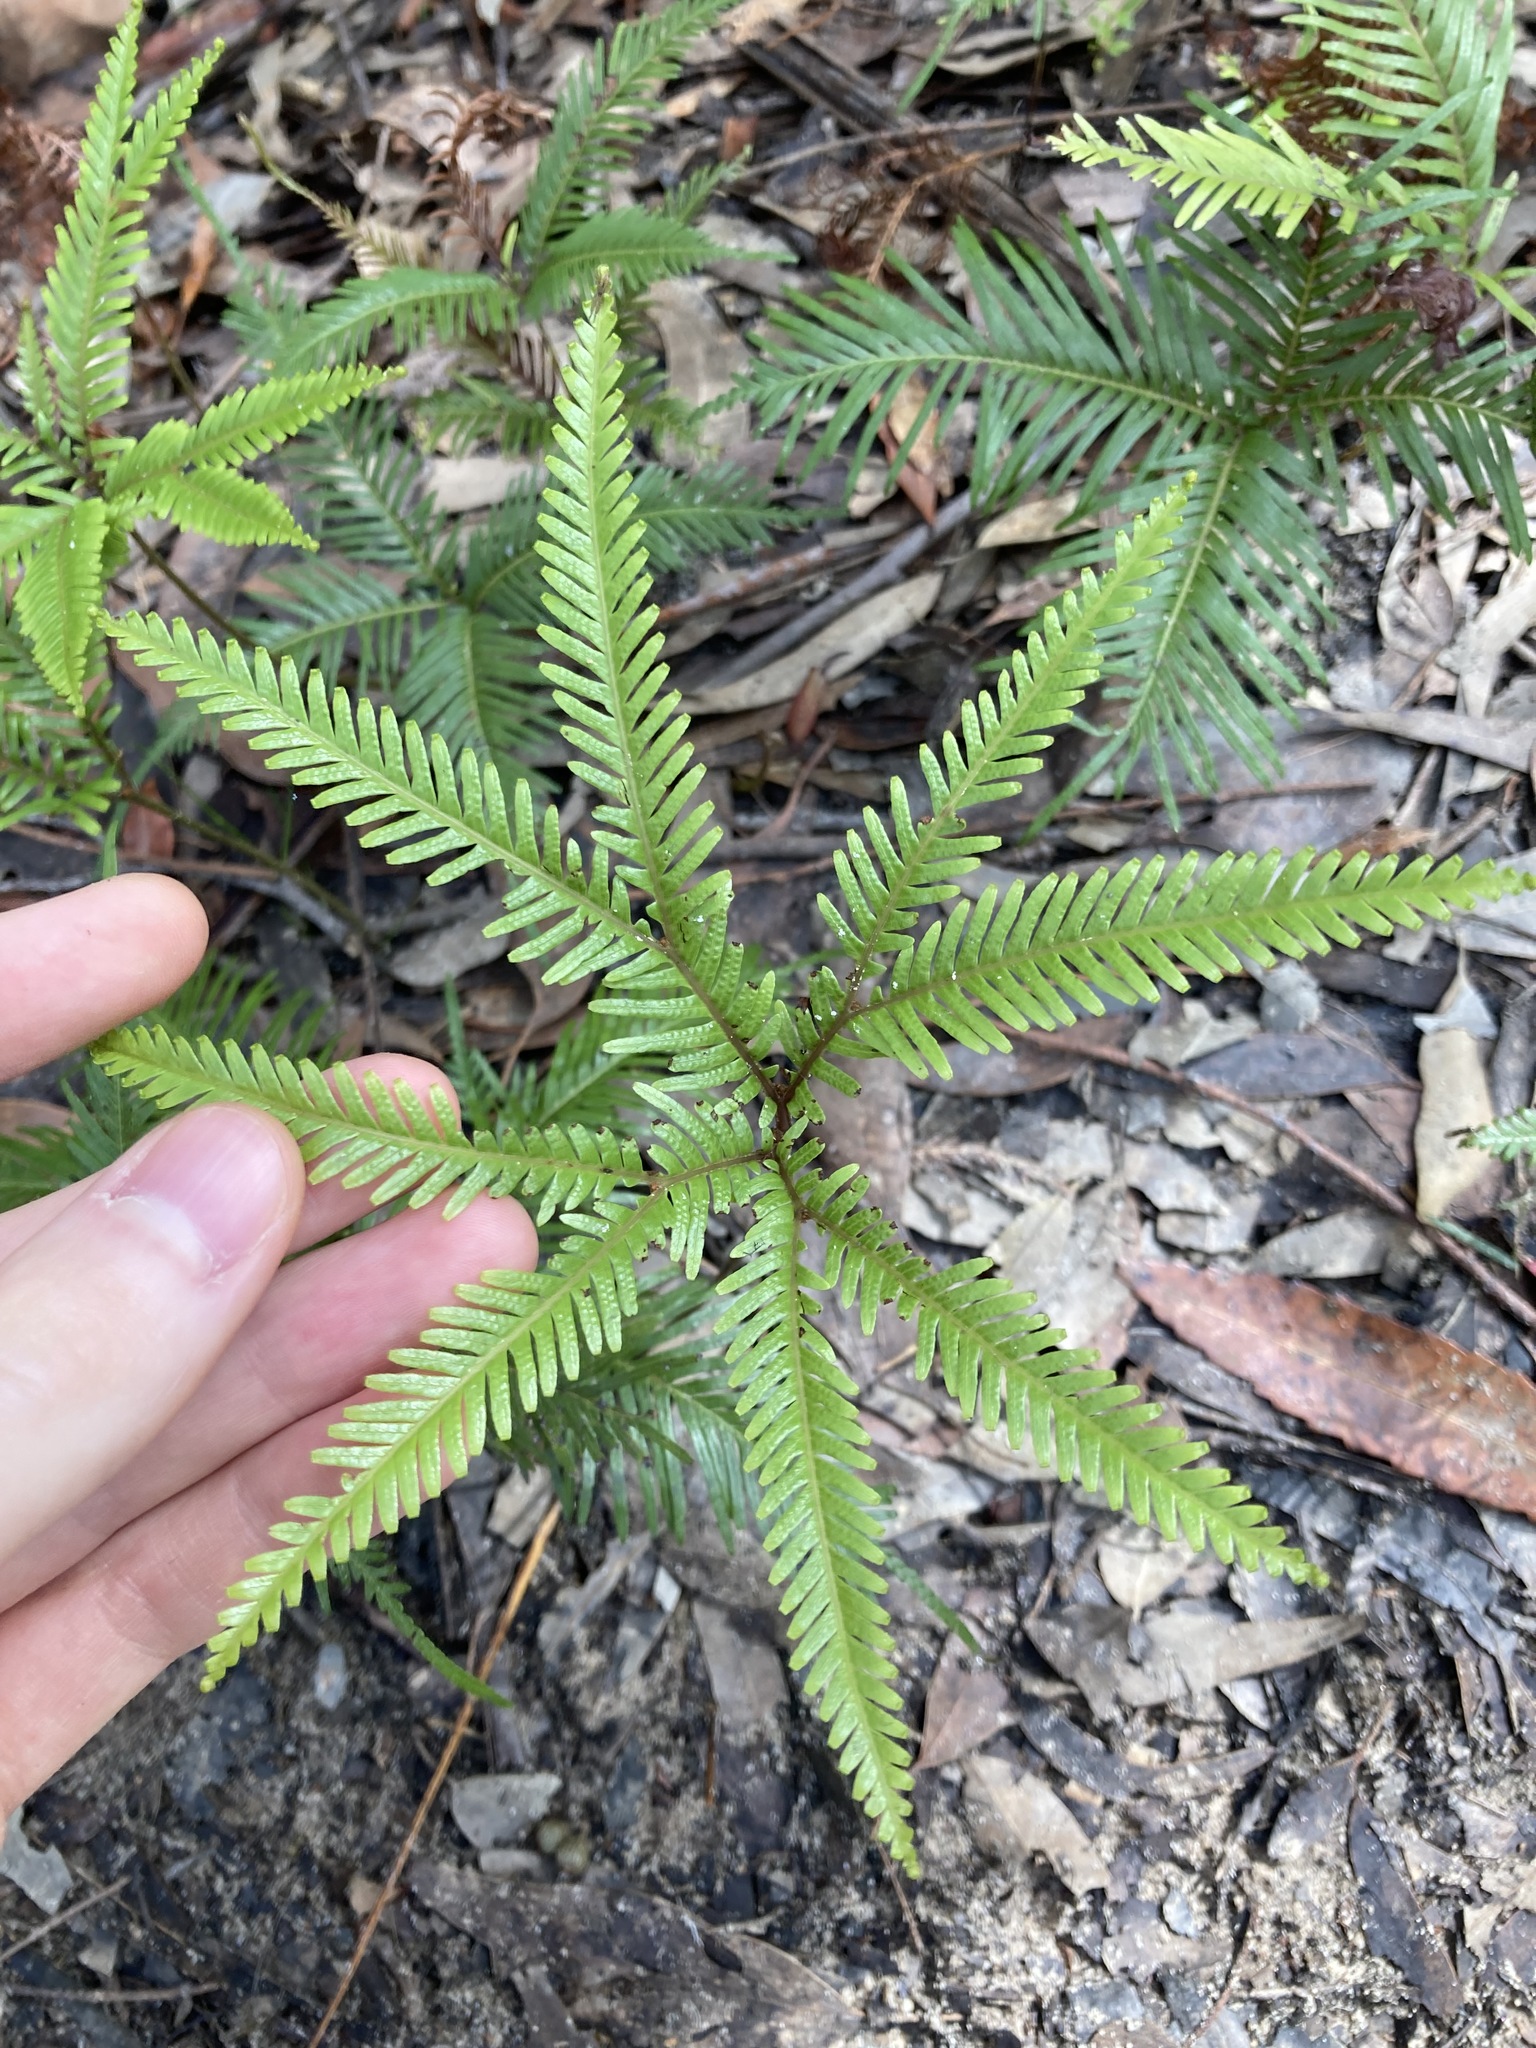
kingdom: Plantae
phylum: Tracheophyta
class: Polypodiopsida
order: Gleicheniales
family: Gleicheniaceae
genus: Sticherus
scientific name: Sticherus flabellatus
